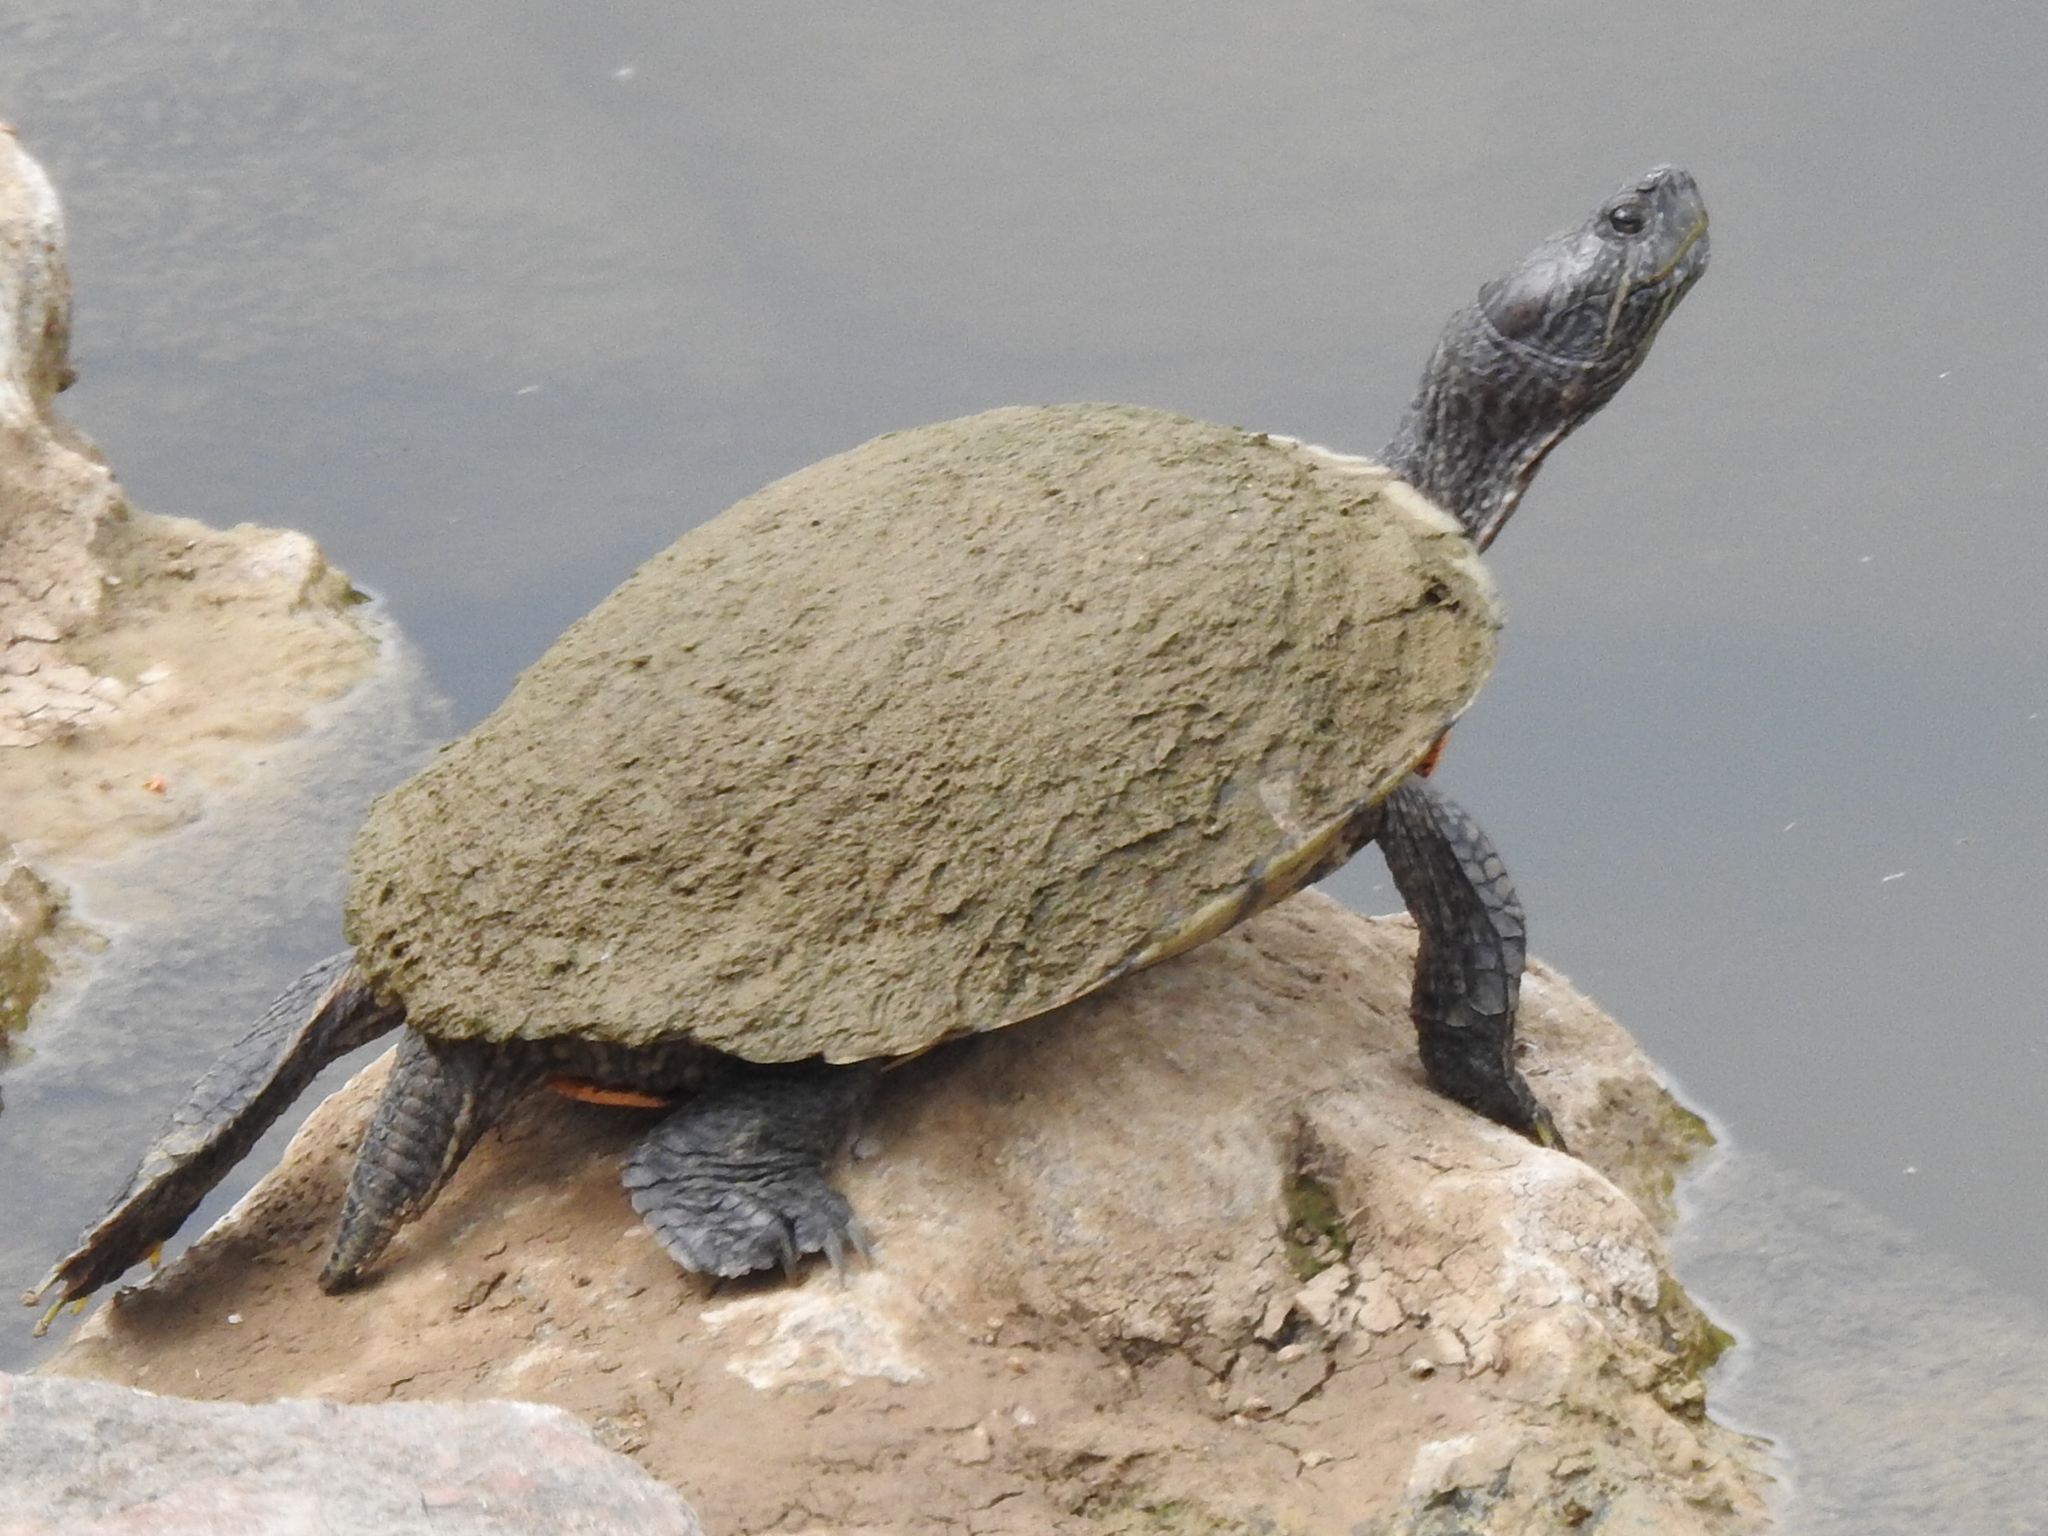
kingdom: Animalia
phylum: Chordata
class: Testudines
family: Emydidae
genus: Trachemys
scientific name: Trachemys scripta
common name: Slider
